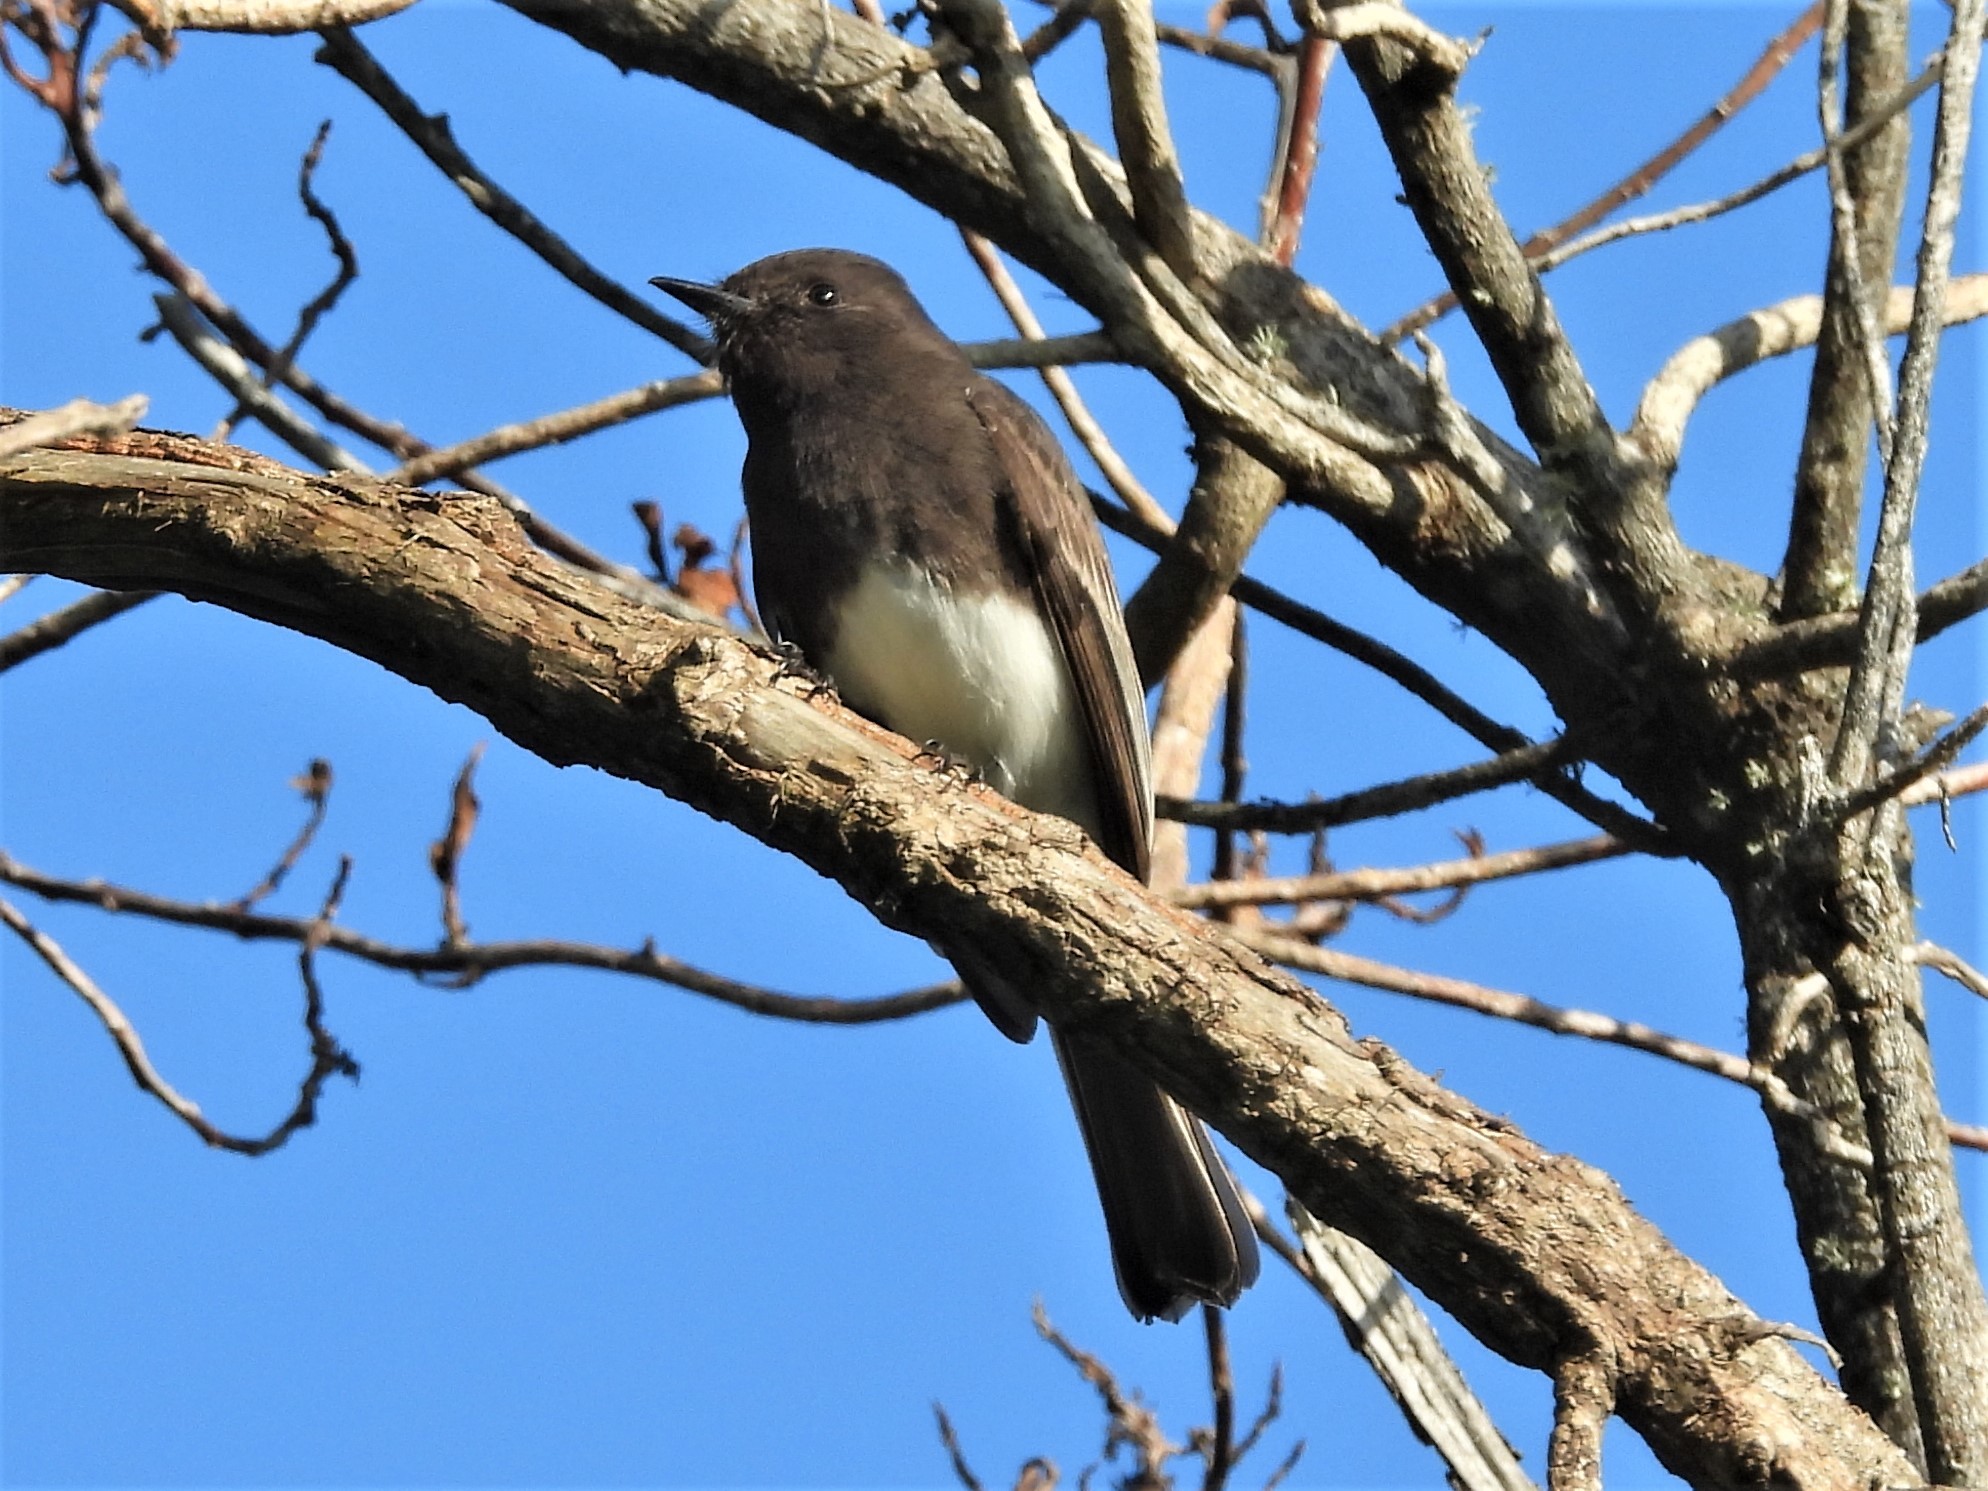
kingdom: Animalia
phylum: Chordata
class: Aves
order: Passeriformes
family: Tyrannidae
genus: Sayornis
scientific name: Sayornis nigricans
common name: Black phoebe
